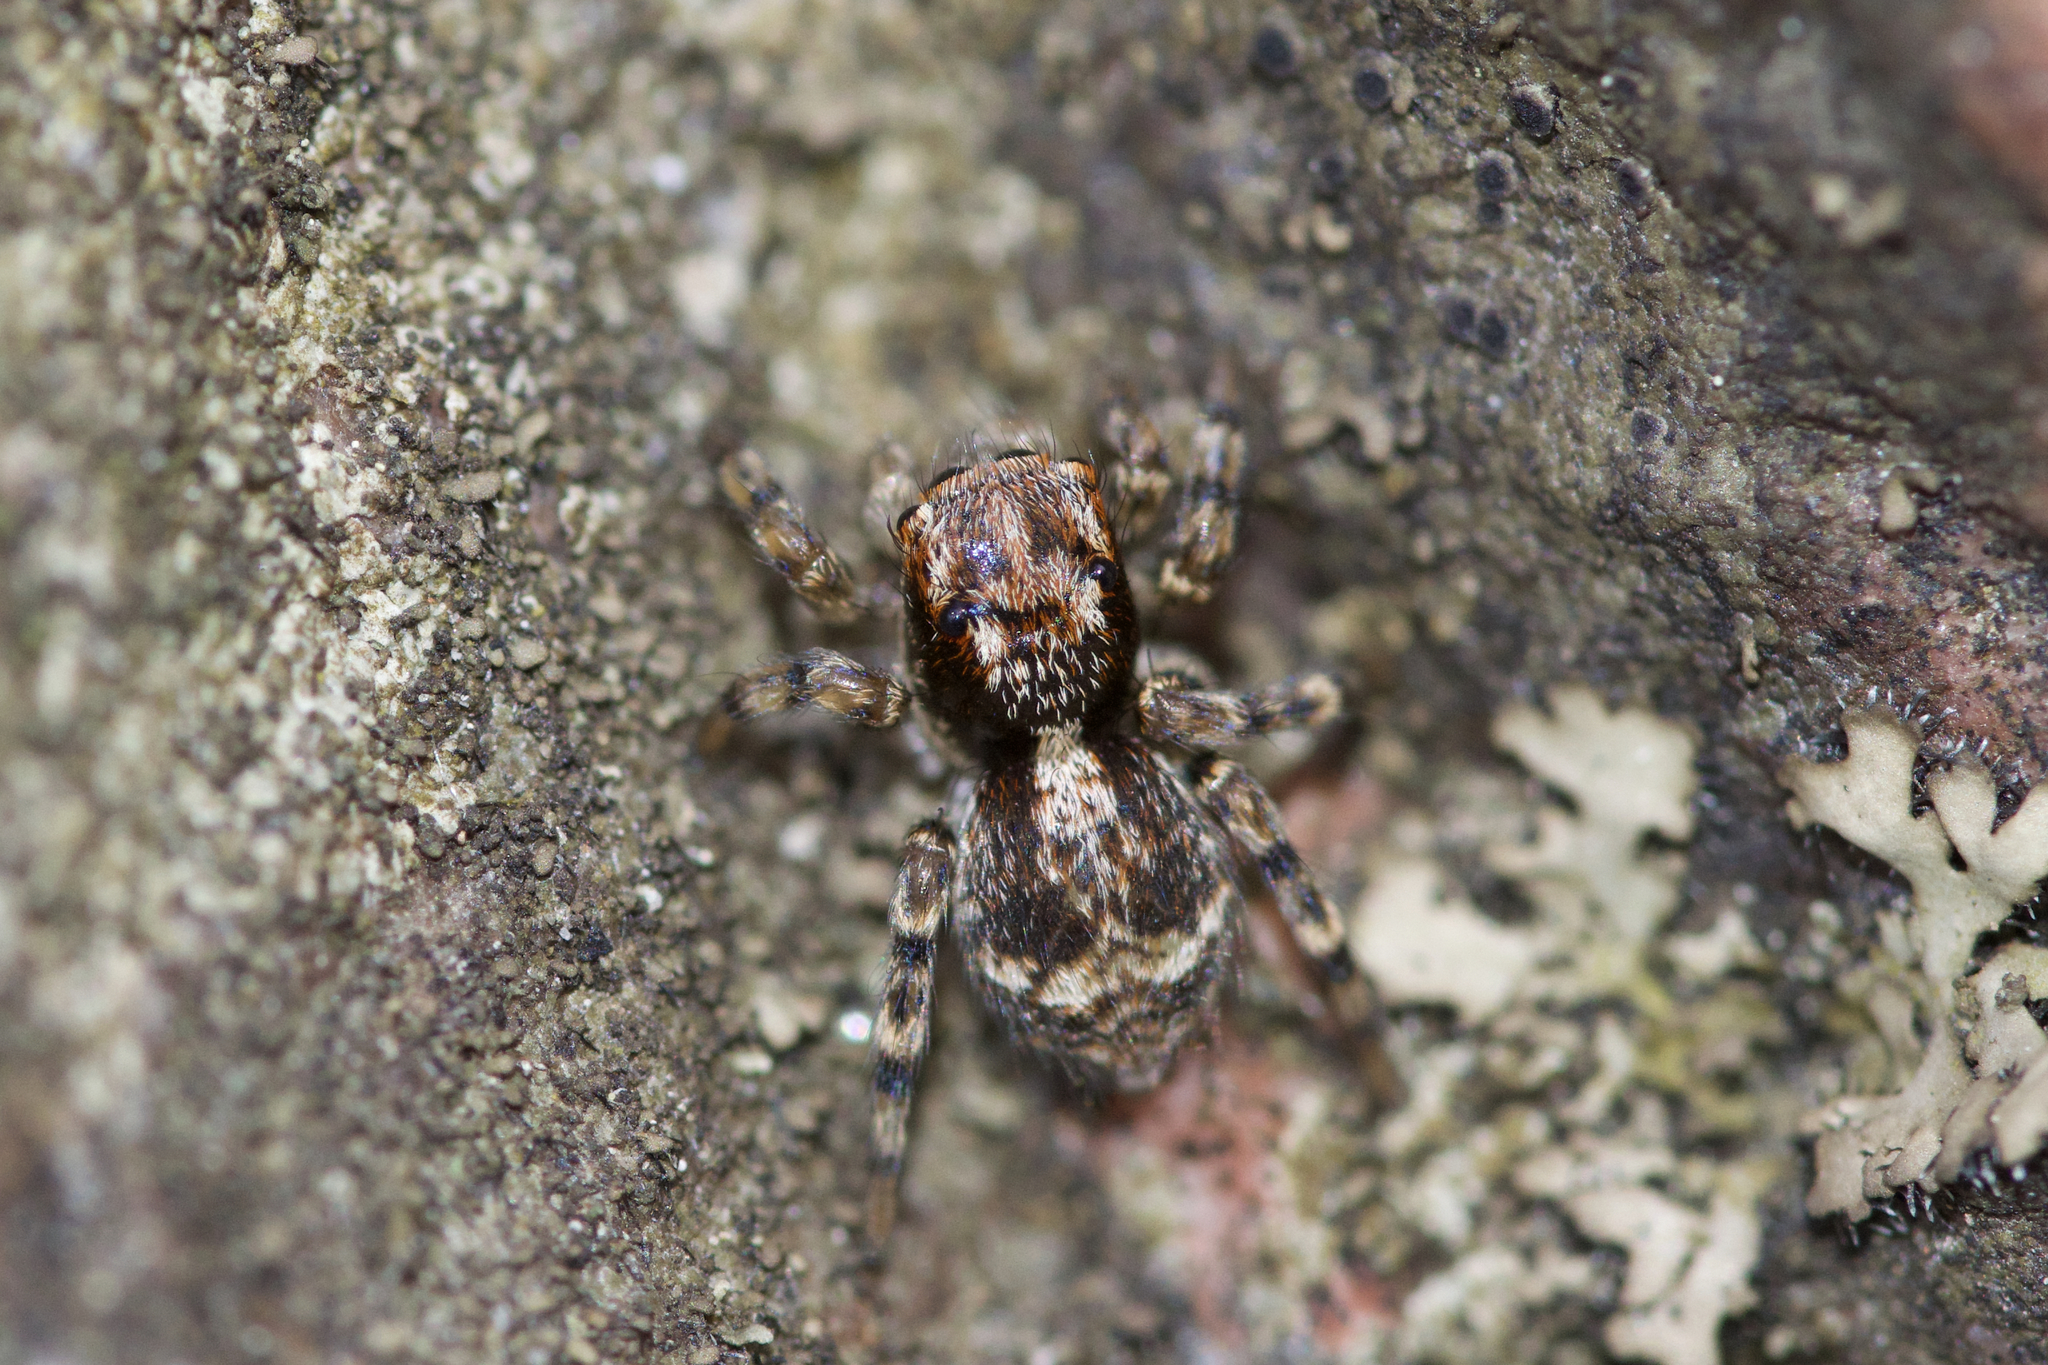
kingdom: Animalia
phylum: Arthropoda
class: Arachnida
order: Araneae
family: Salticidae
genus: Naphrys
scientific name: Naphrys pulex
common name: Flea jumping spider
